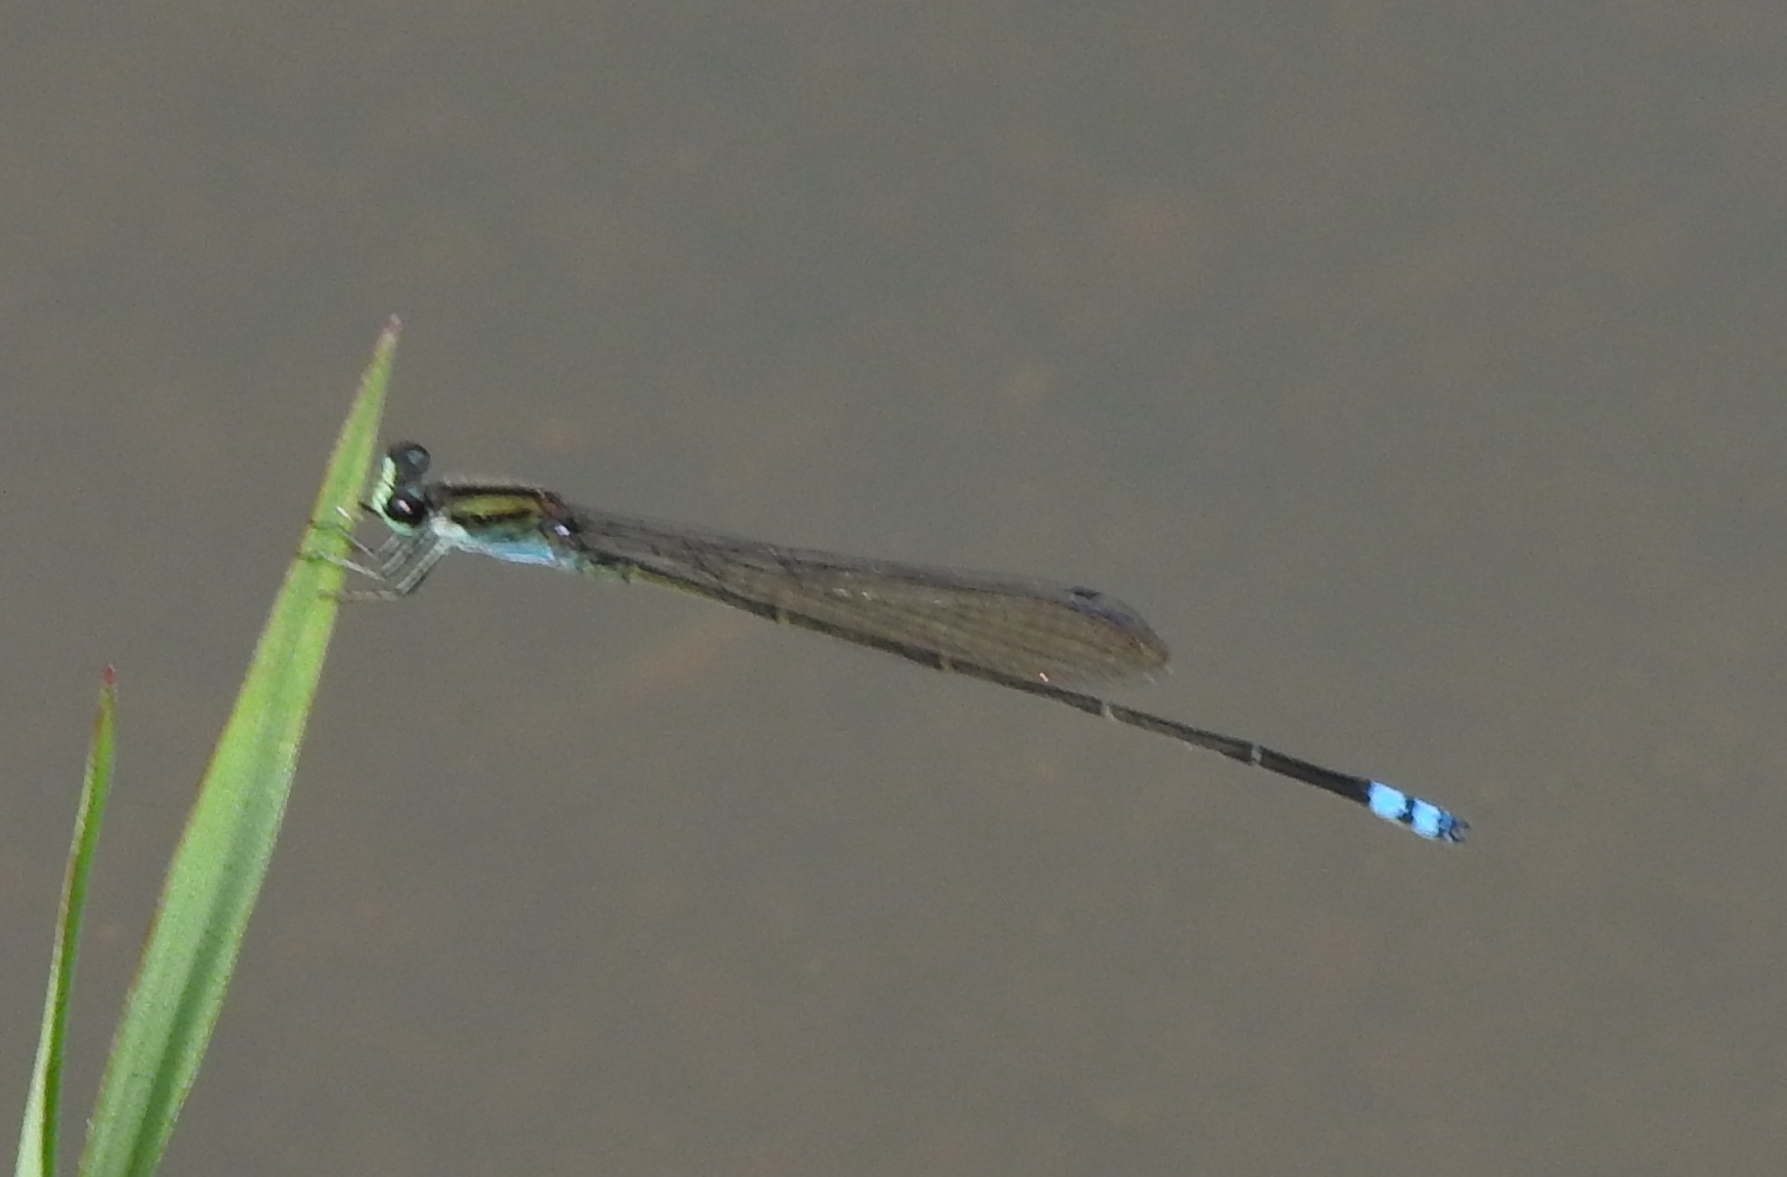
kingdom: Animalia
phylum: Arthropoda
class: Insecta
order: Odonata
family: Coenagrionidae
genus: Pseudagrion
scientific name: Pseudagrion indicum
